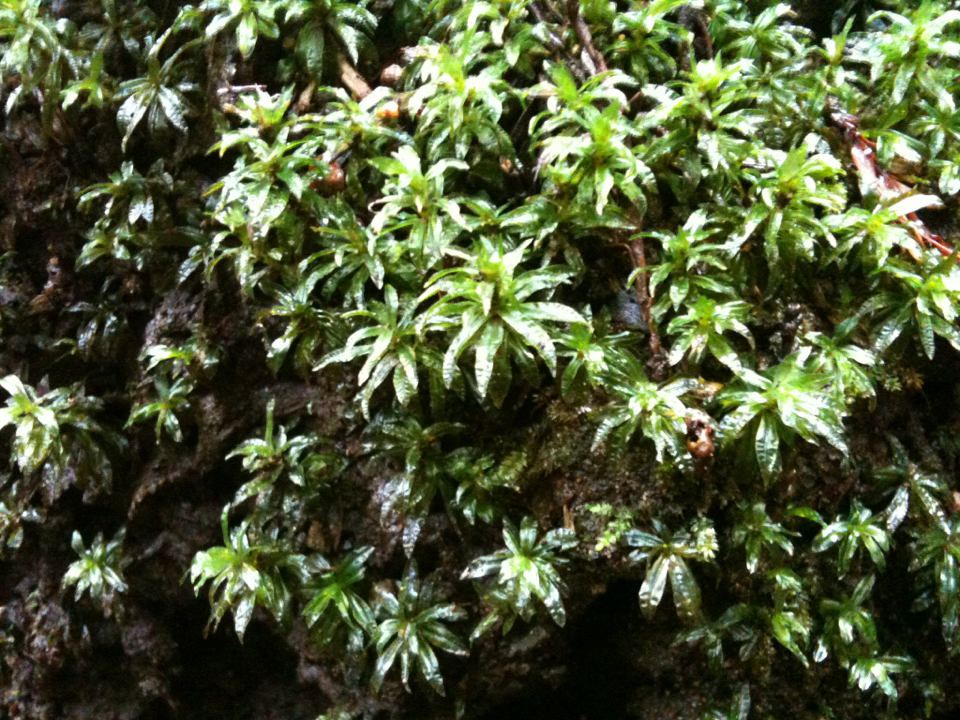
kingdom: Plantae
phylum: Bryophyta
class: Polytrichopsida
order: Polytrichales
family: Polytrichaceae
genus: Atrichum
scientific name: Atrichum selwynii
